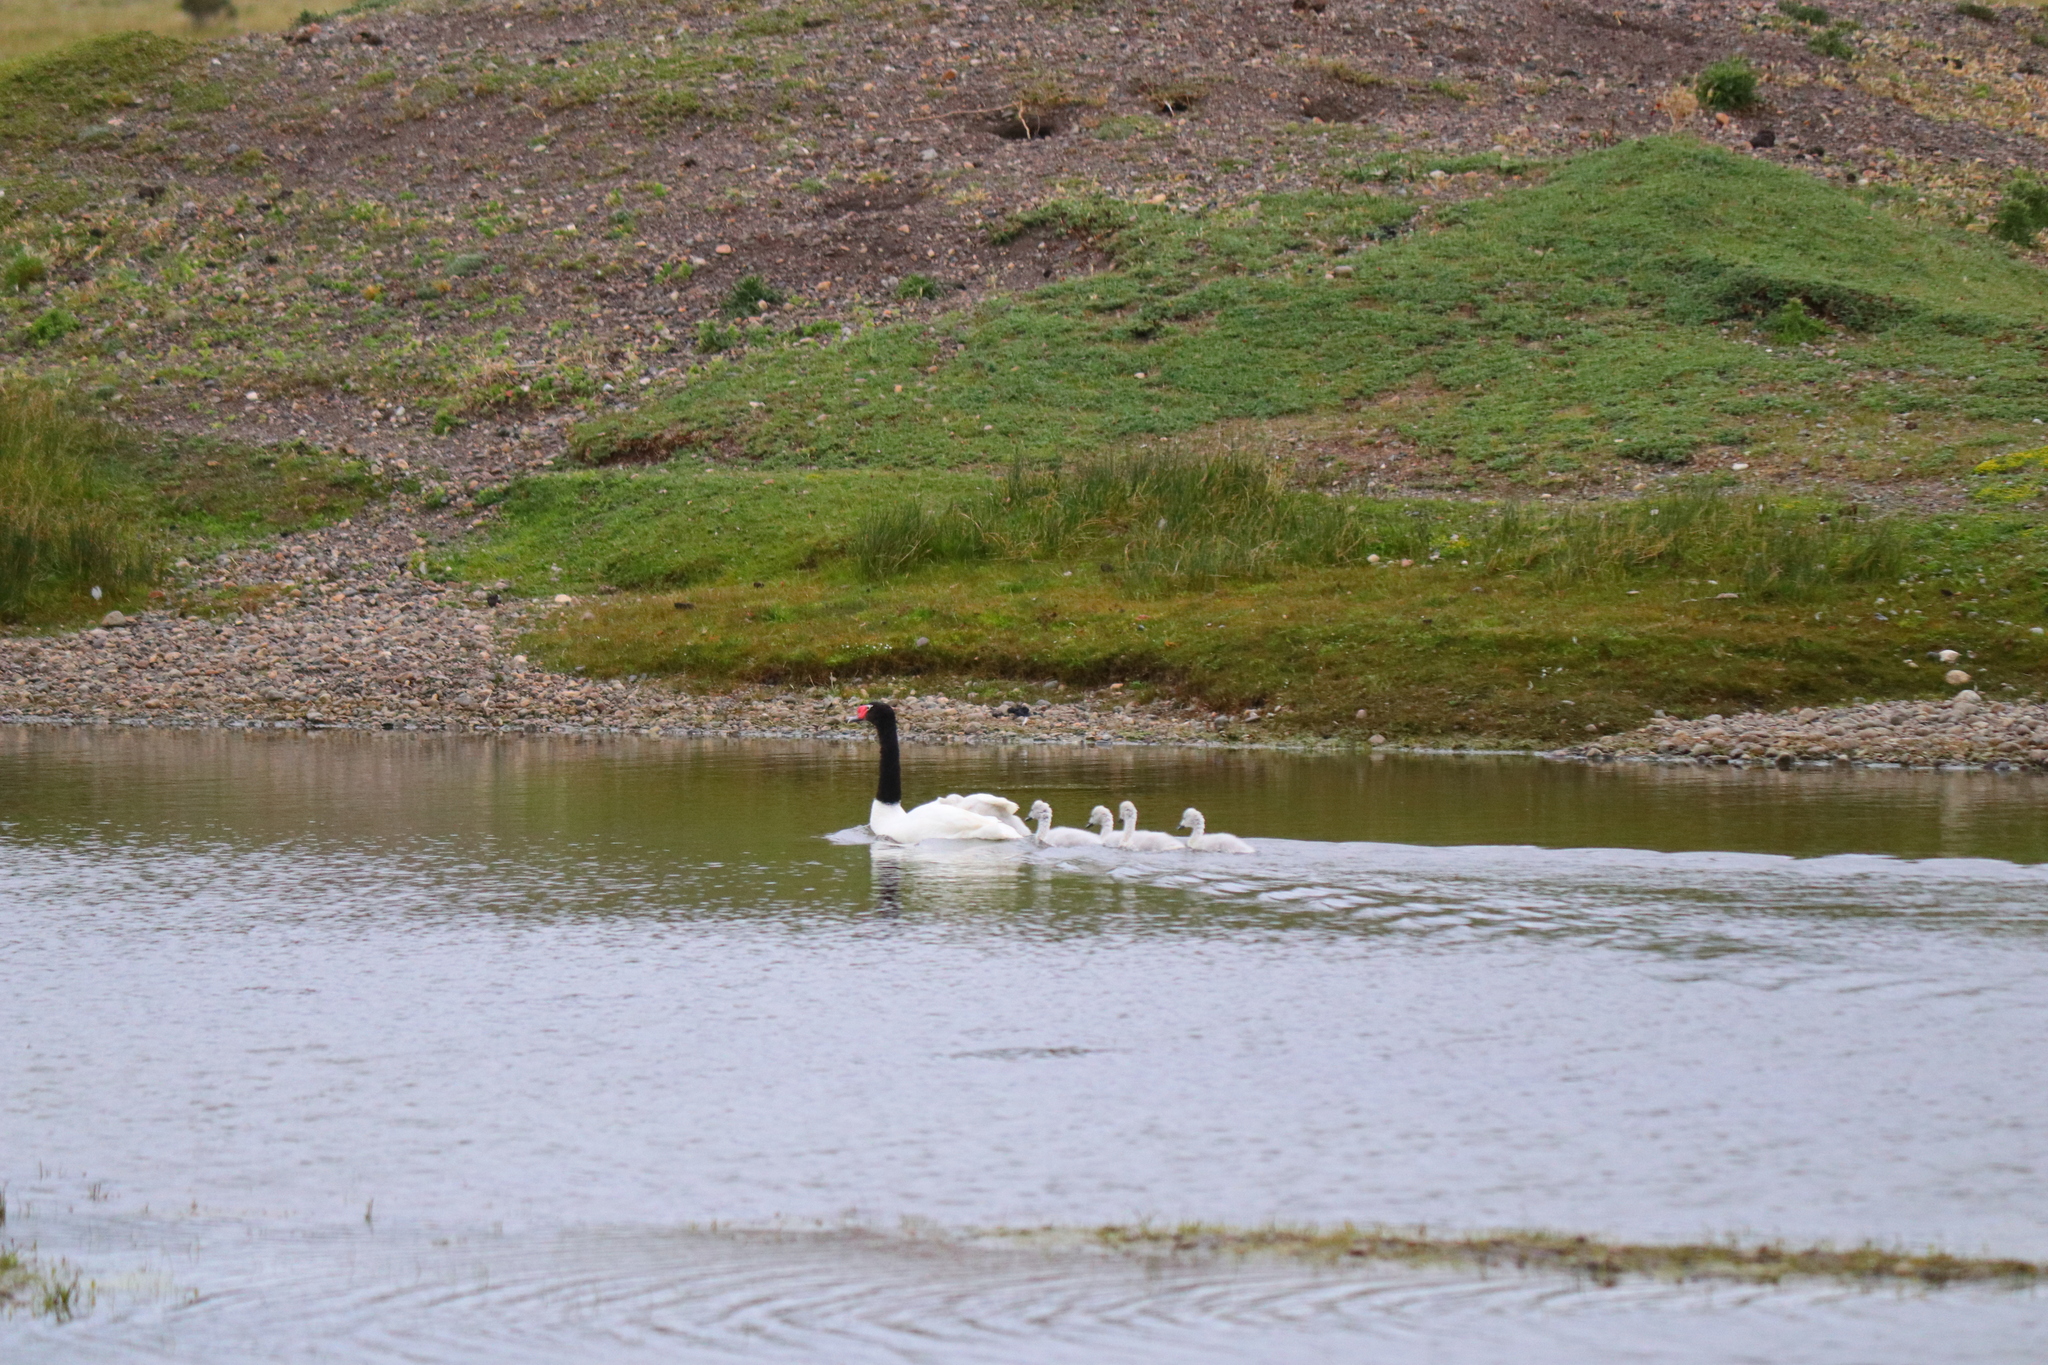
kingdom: Animalia
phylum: Chordata
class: Aves
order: Anseriformes
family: Anatidae
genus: Cygnus
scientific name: Cygnus melancoryphus
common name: Black-necked swan
